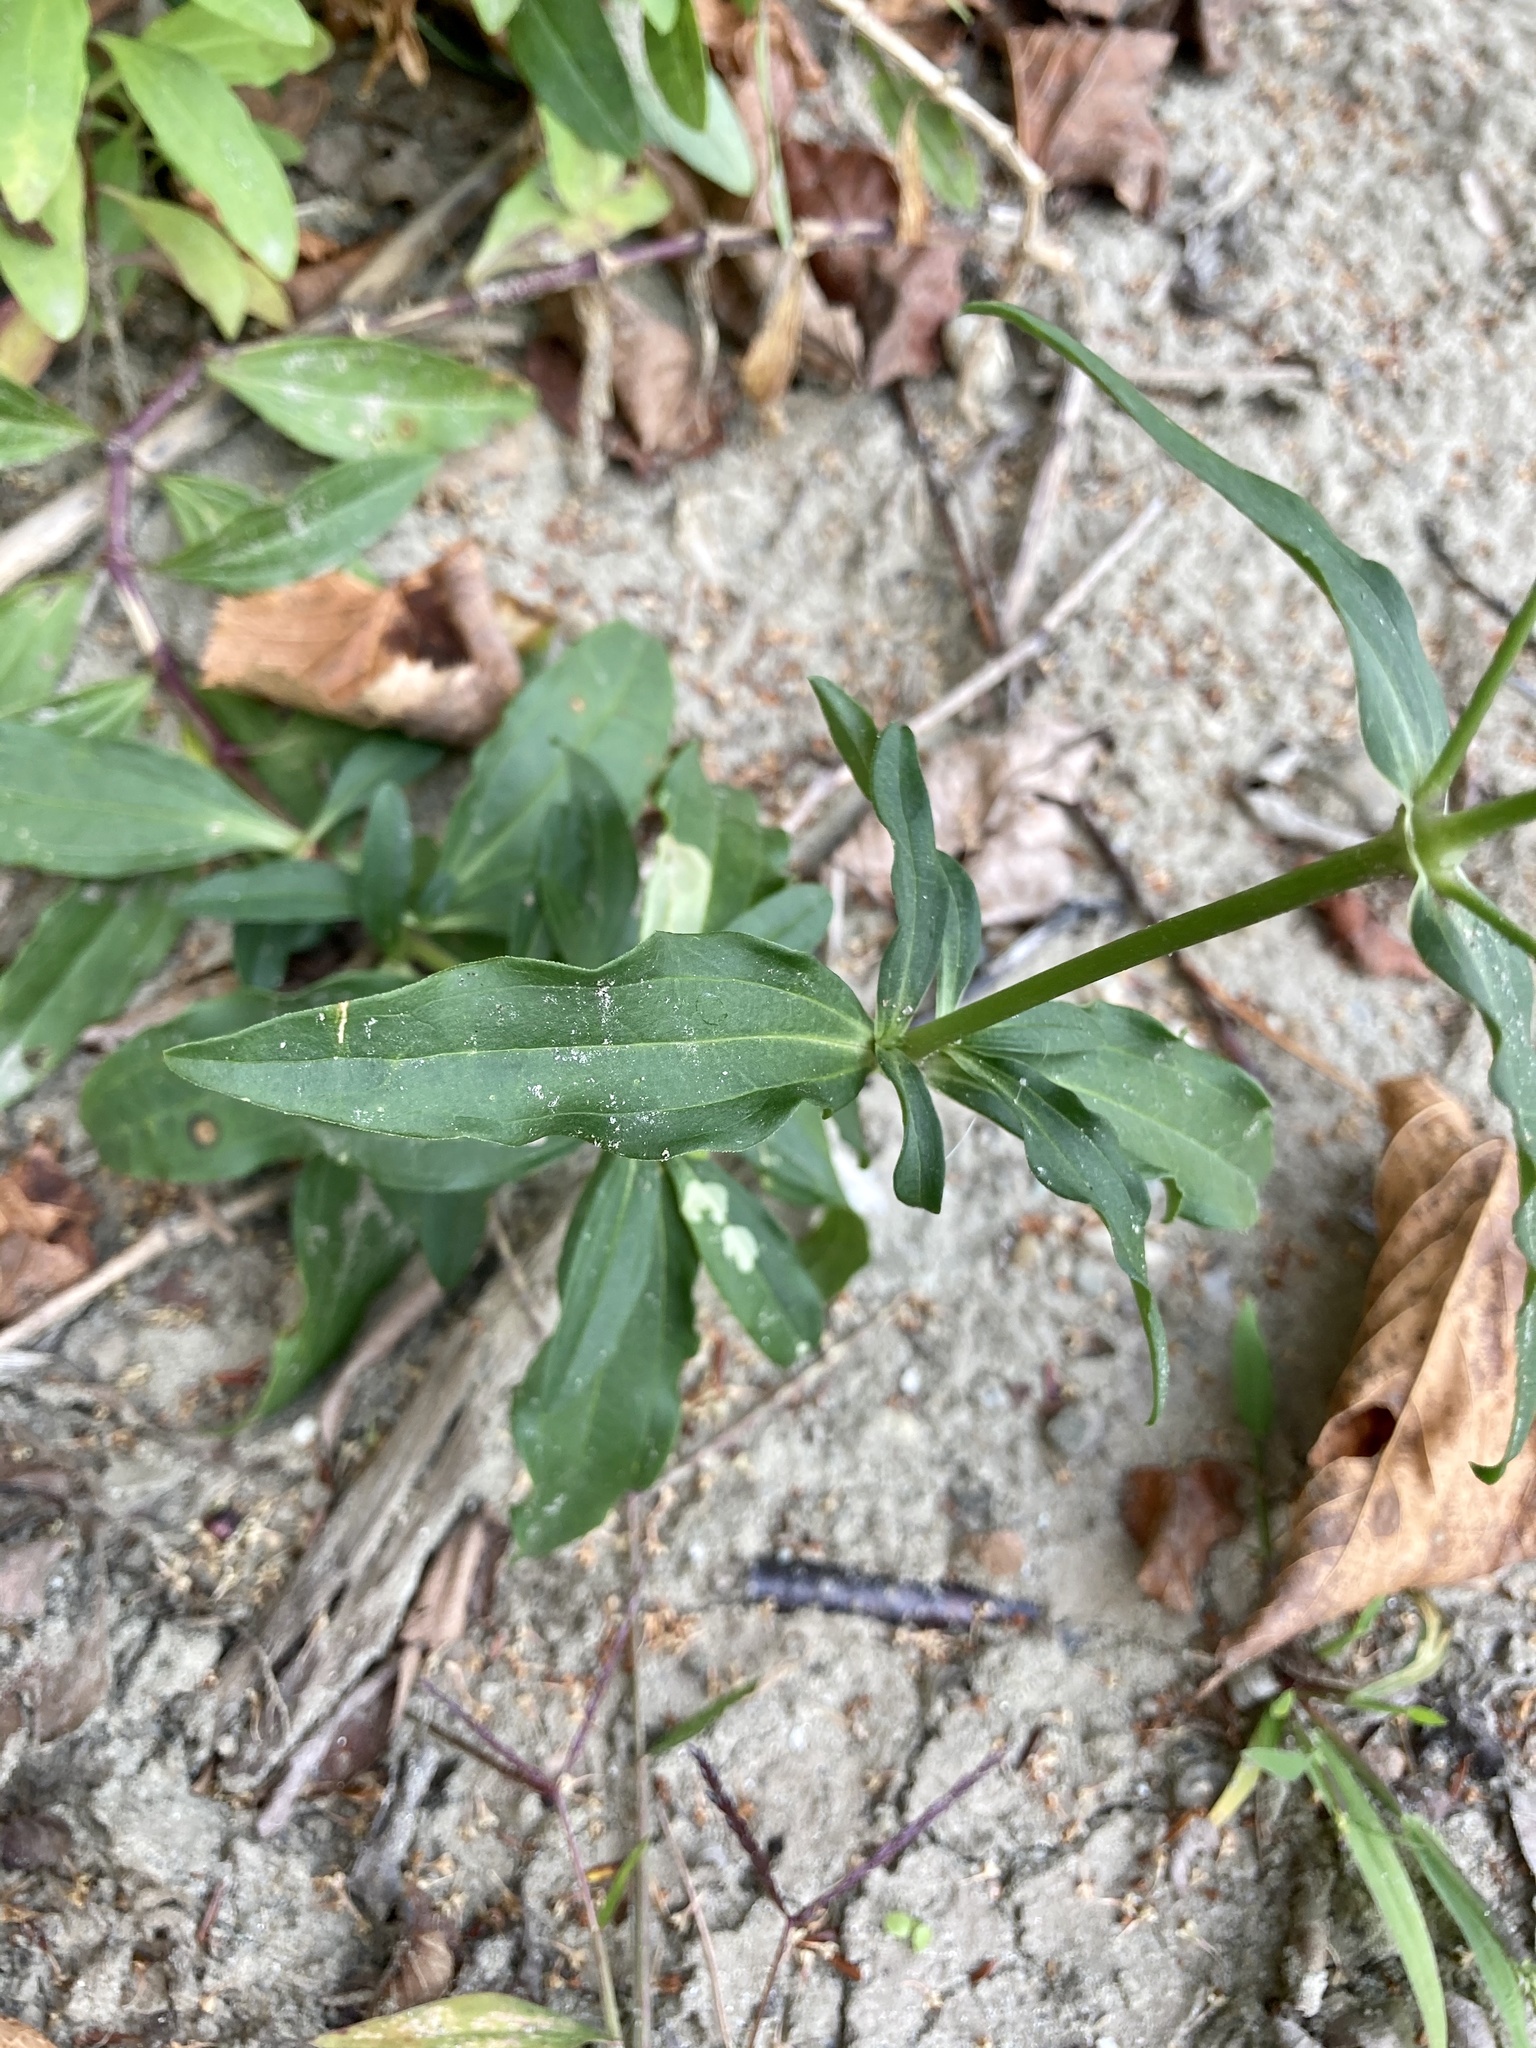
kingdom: Plantae
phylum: Tracheophyta
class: Magnoliopsida
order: Caryophyllales
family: Caryophyllaceae
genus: Saponaria
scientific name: Saponaria officinalis
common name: Soapwort
